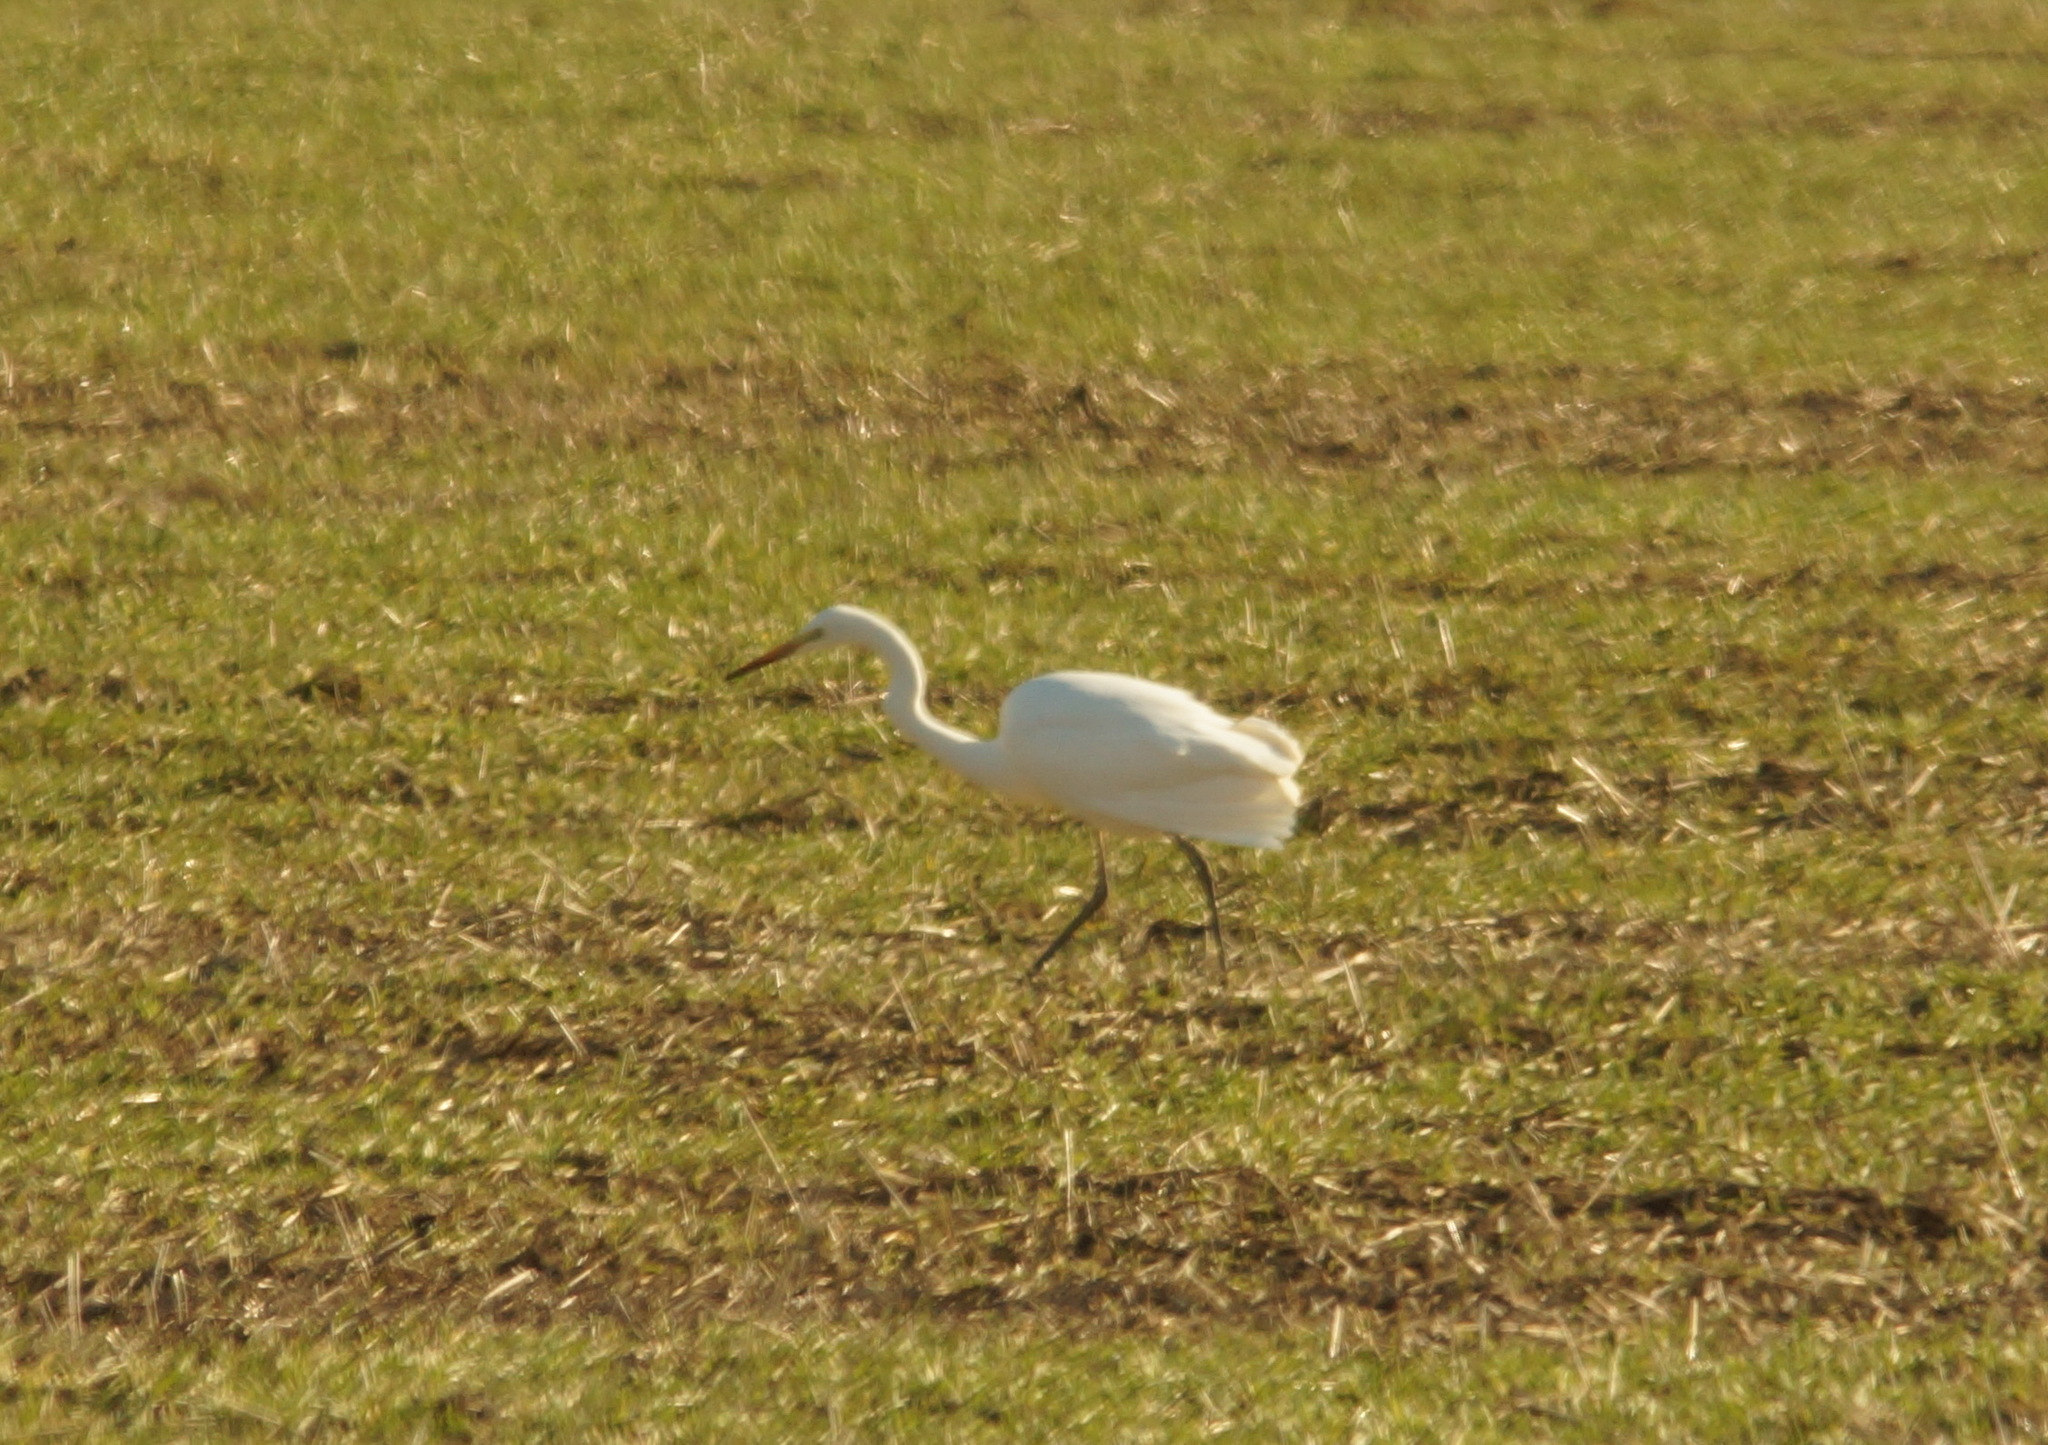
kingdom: Animalia
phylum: Chordata
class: Aves
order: Pelecaniformes
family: Ardeidae
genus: Ardea
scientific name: Ardea alba
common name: Great egret
